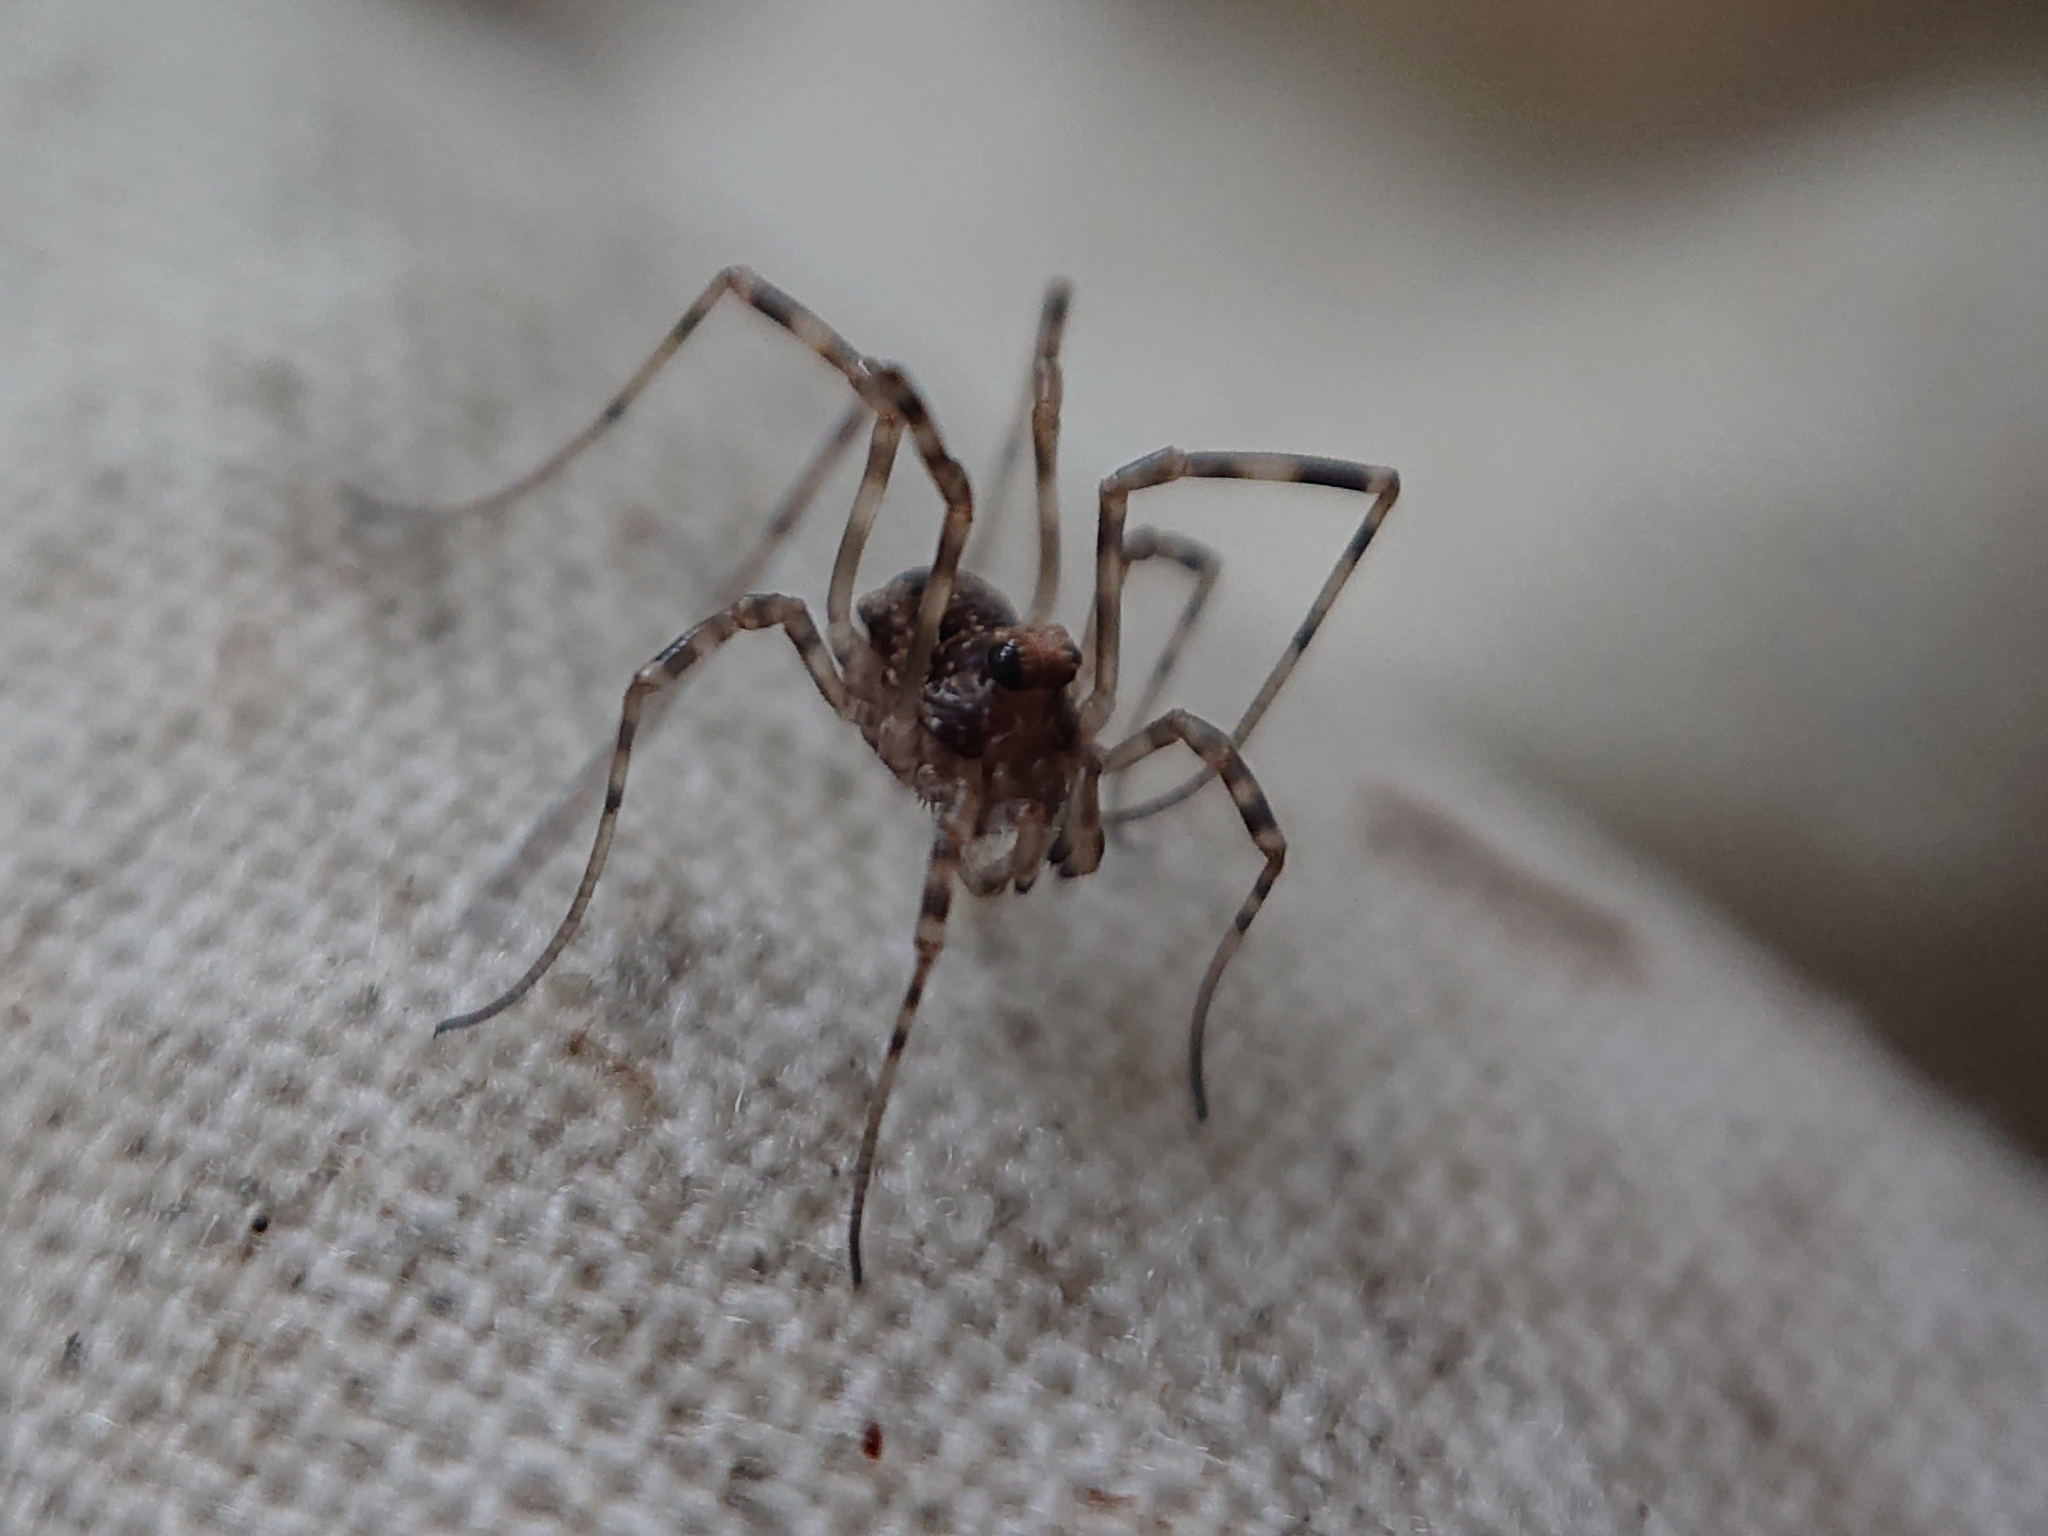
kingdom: Animalia
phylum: Arthropoda
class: Arachnida
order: Opiliones
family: Phalangiidae
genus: Platybunus
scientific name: Platybunus pinetorum
